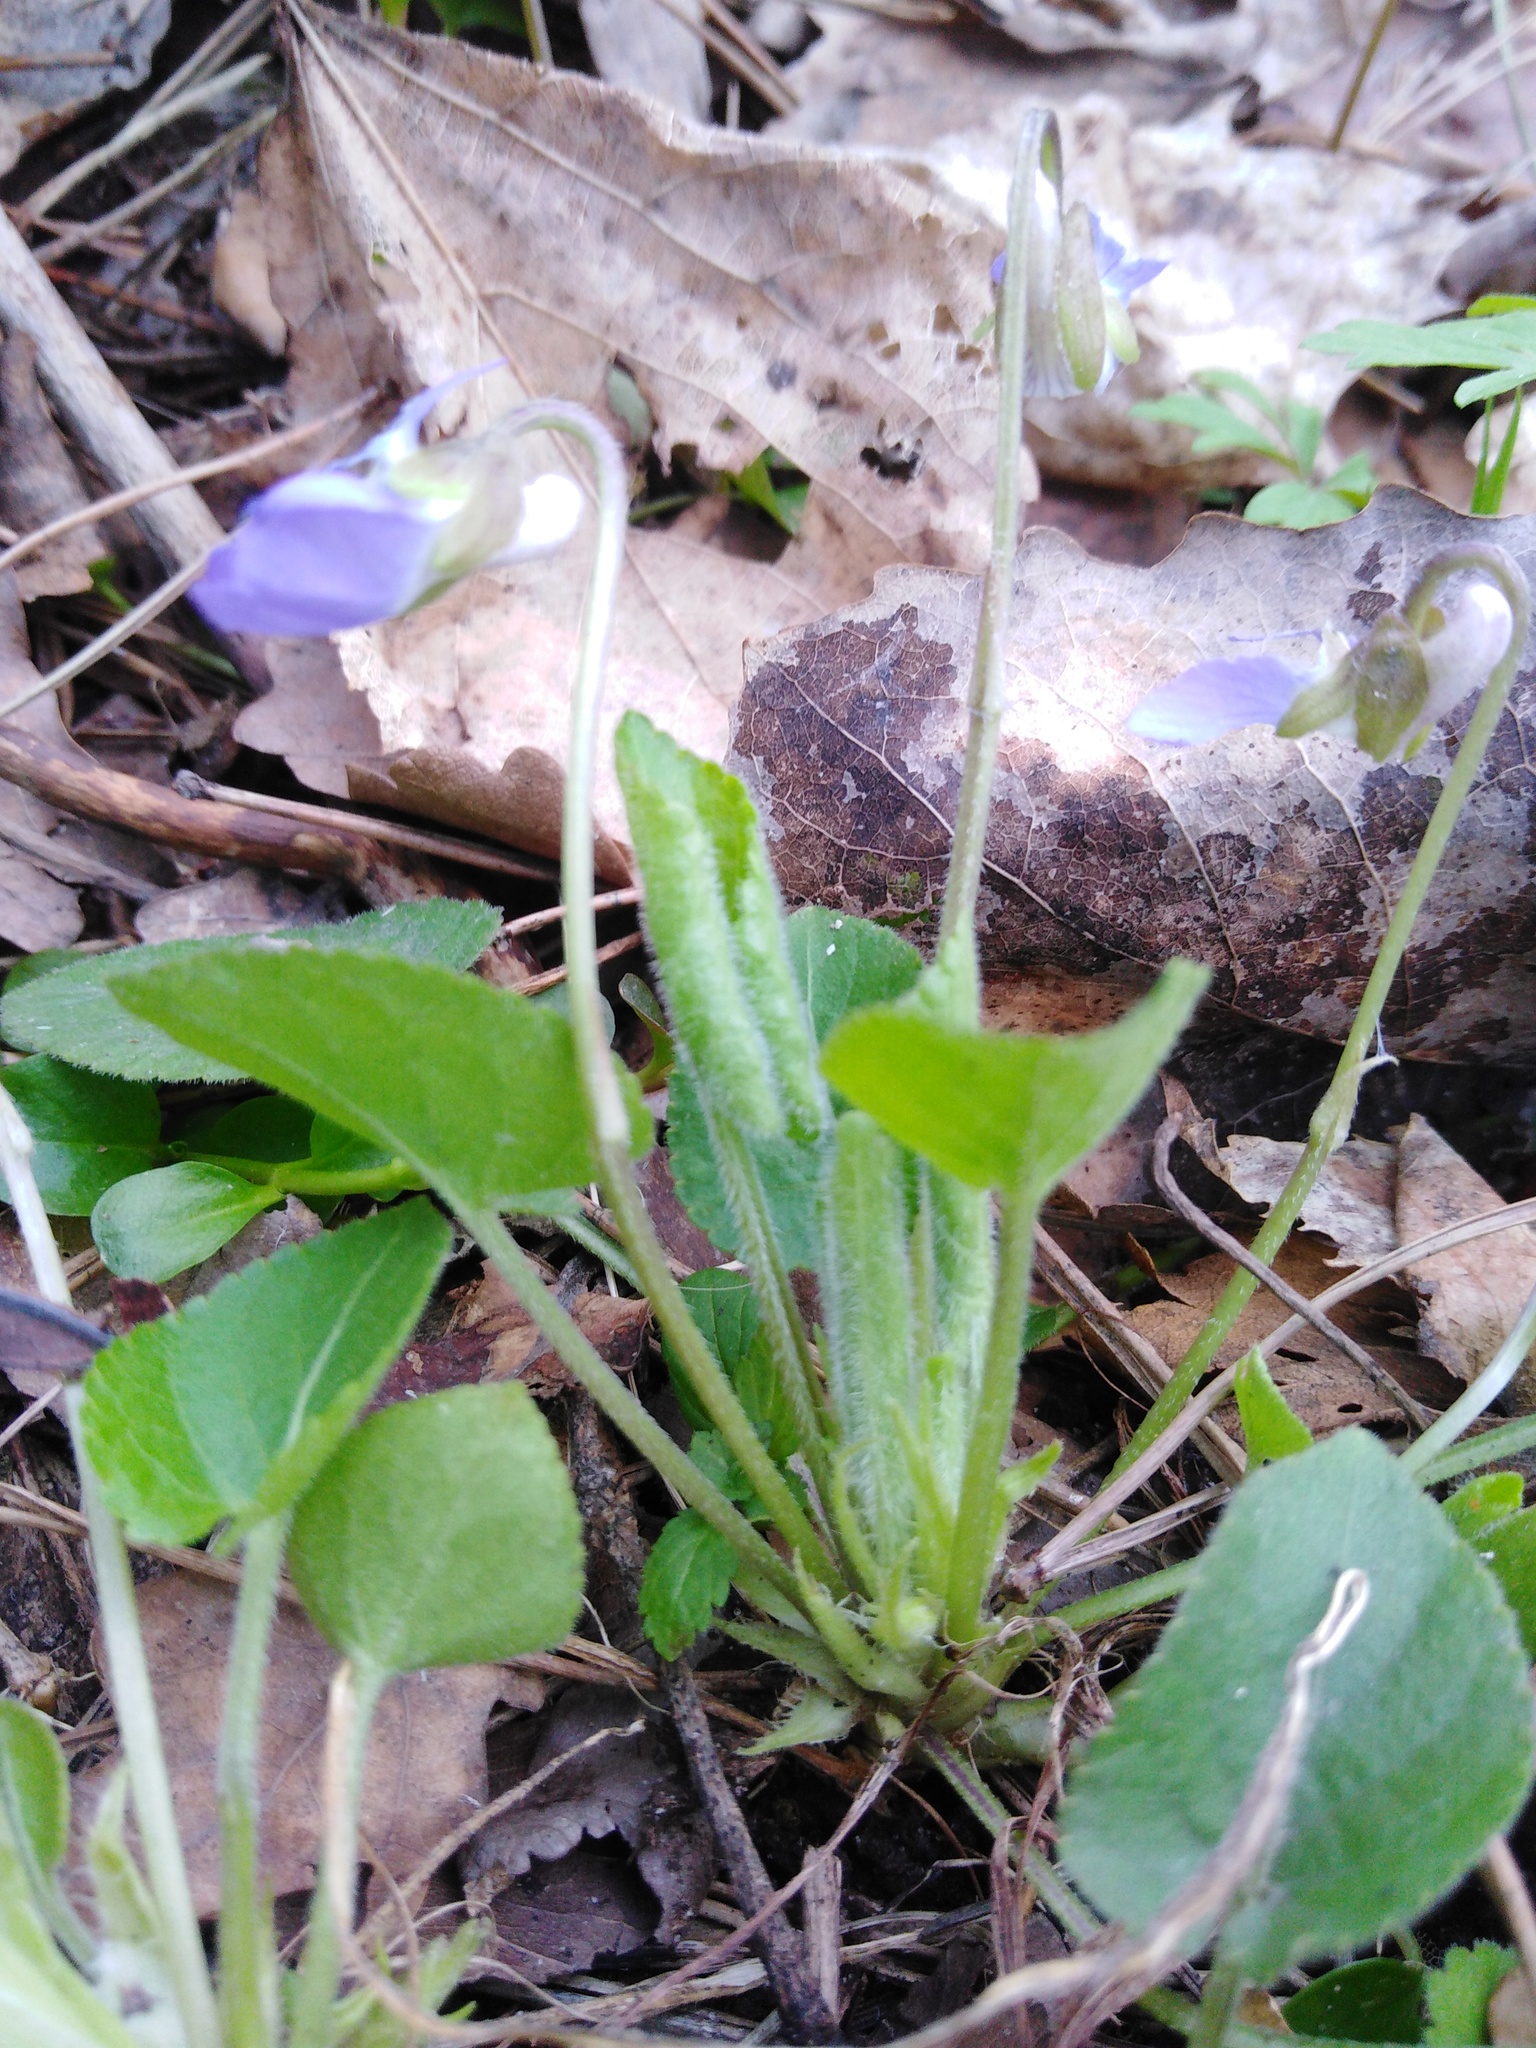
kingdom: Plantae
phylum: Tracheophyta
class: Magnoliopsida
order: Malpighiales
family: Violaceae
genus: Viola
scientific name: Viola collina
